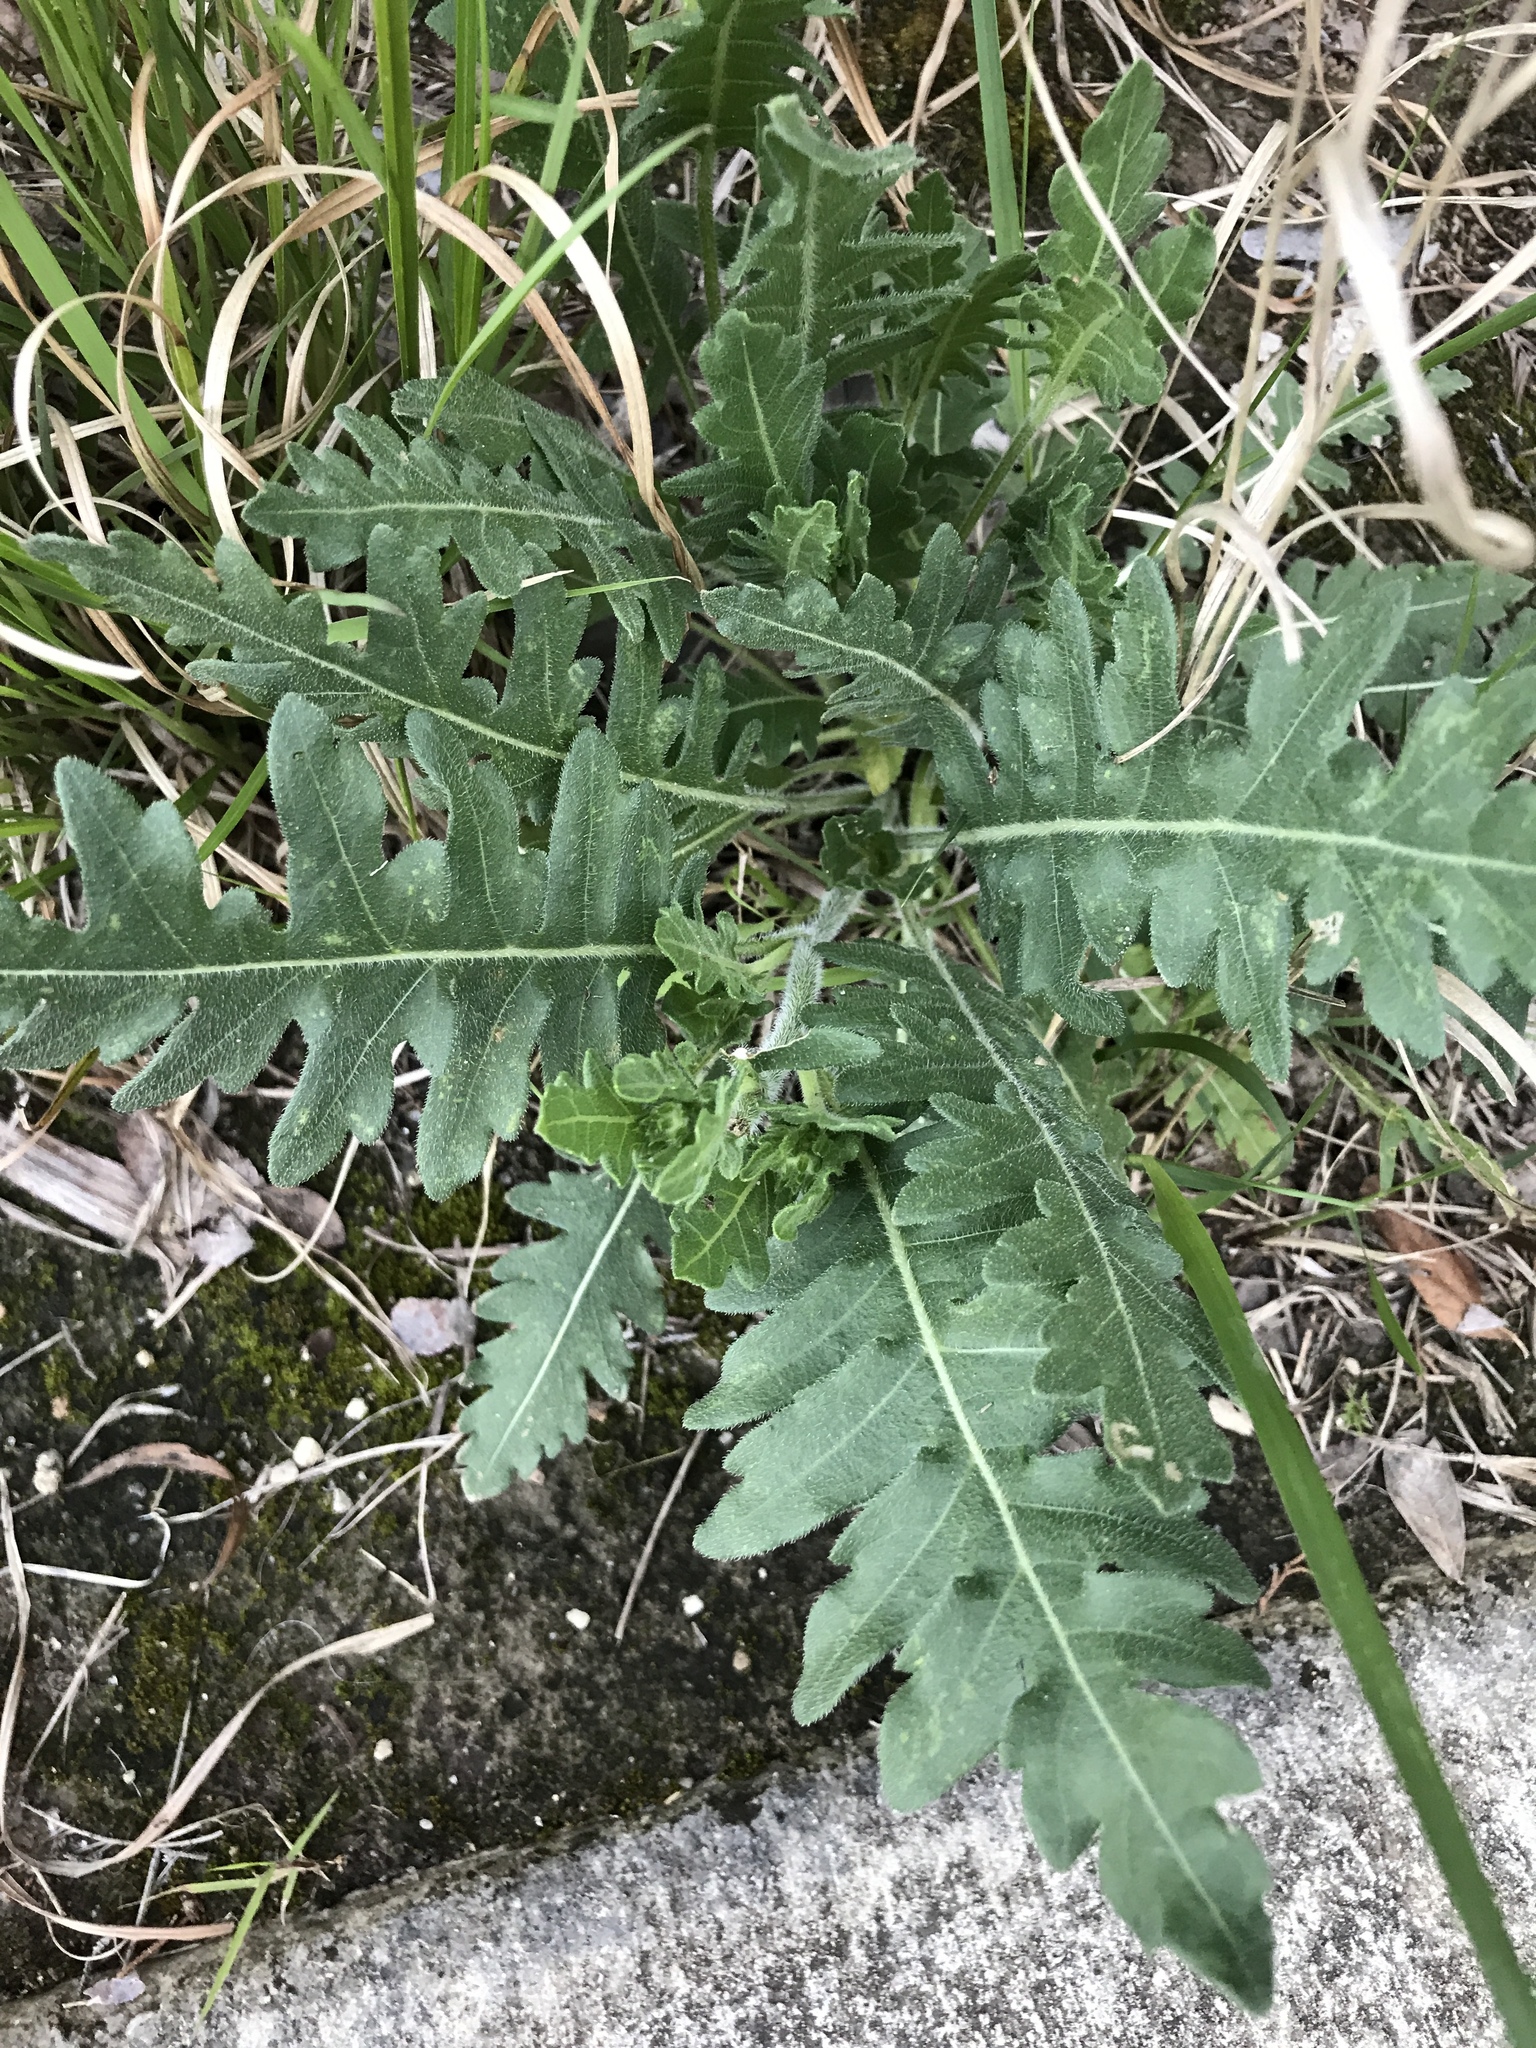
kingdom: Plantae
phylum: Tracheophyta
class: Magnoliopsida
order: Asterales
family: Asteraceae
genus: Engelmannia
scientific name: Engelmannia peristenia
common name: Engelmann's daisy
